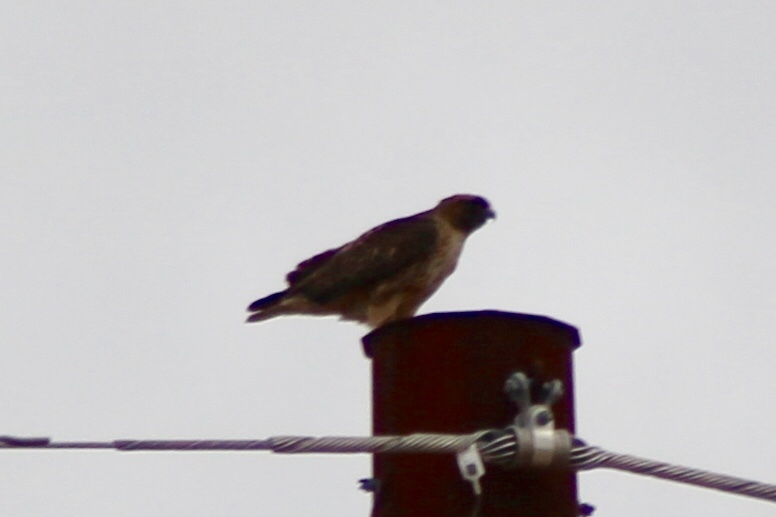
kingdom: Animalia
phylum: Chordata
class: Aves
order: Accipitriformes
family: Accipitridae
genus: Buteo
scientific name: Buteo jamaicensis
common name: Red-tailed hawk
